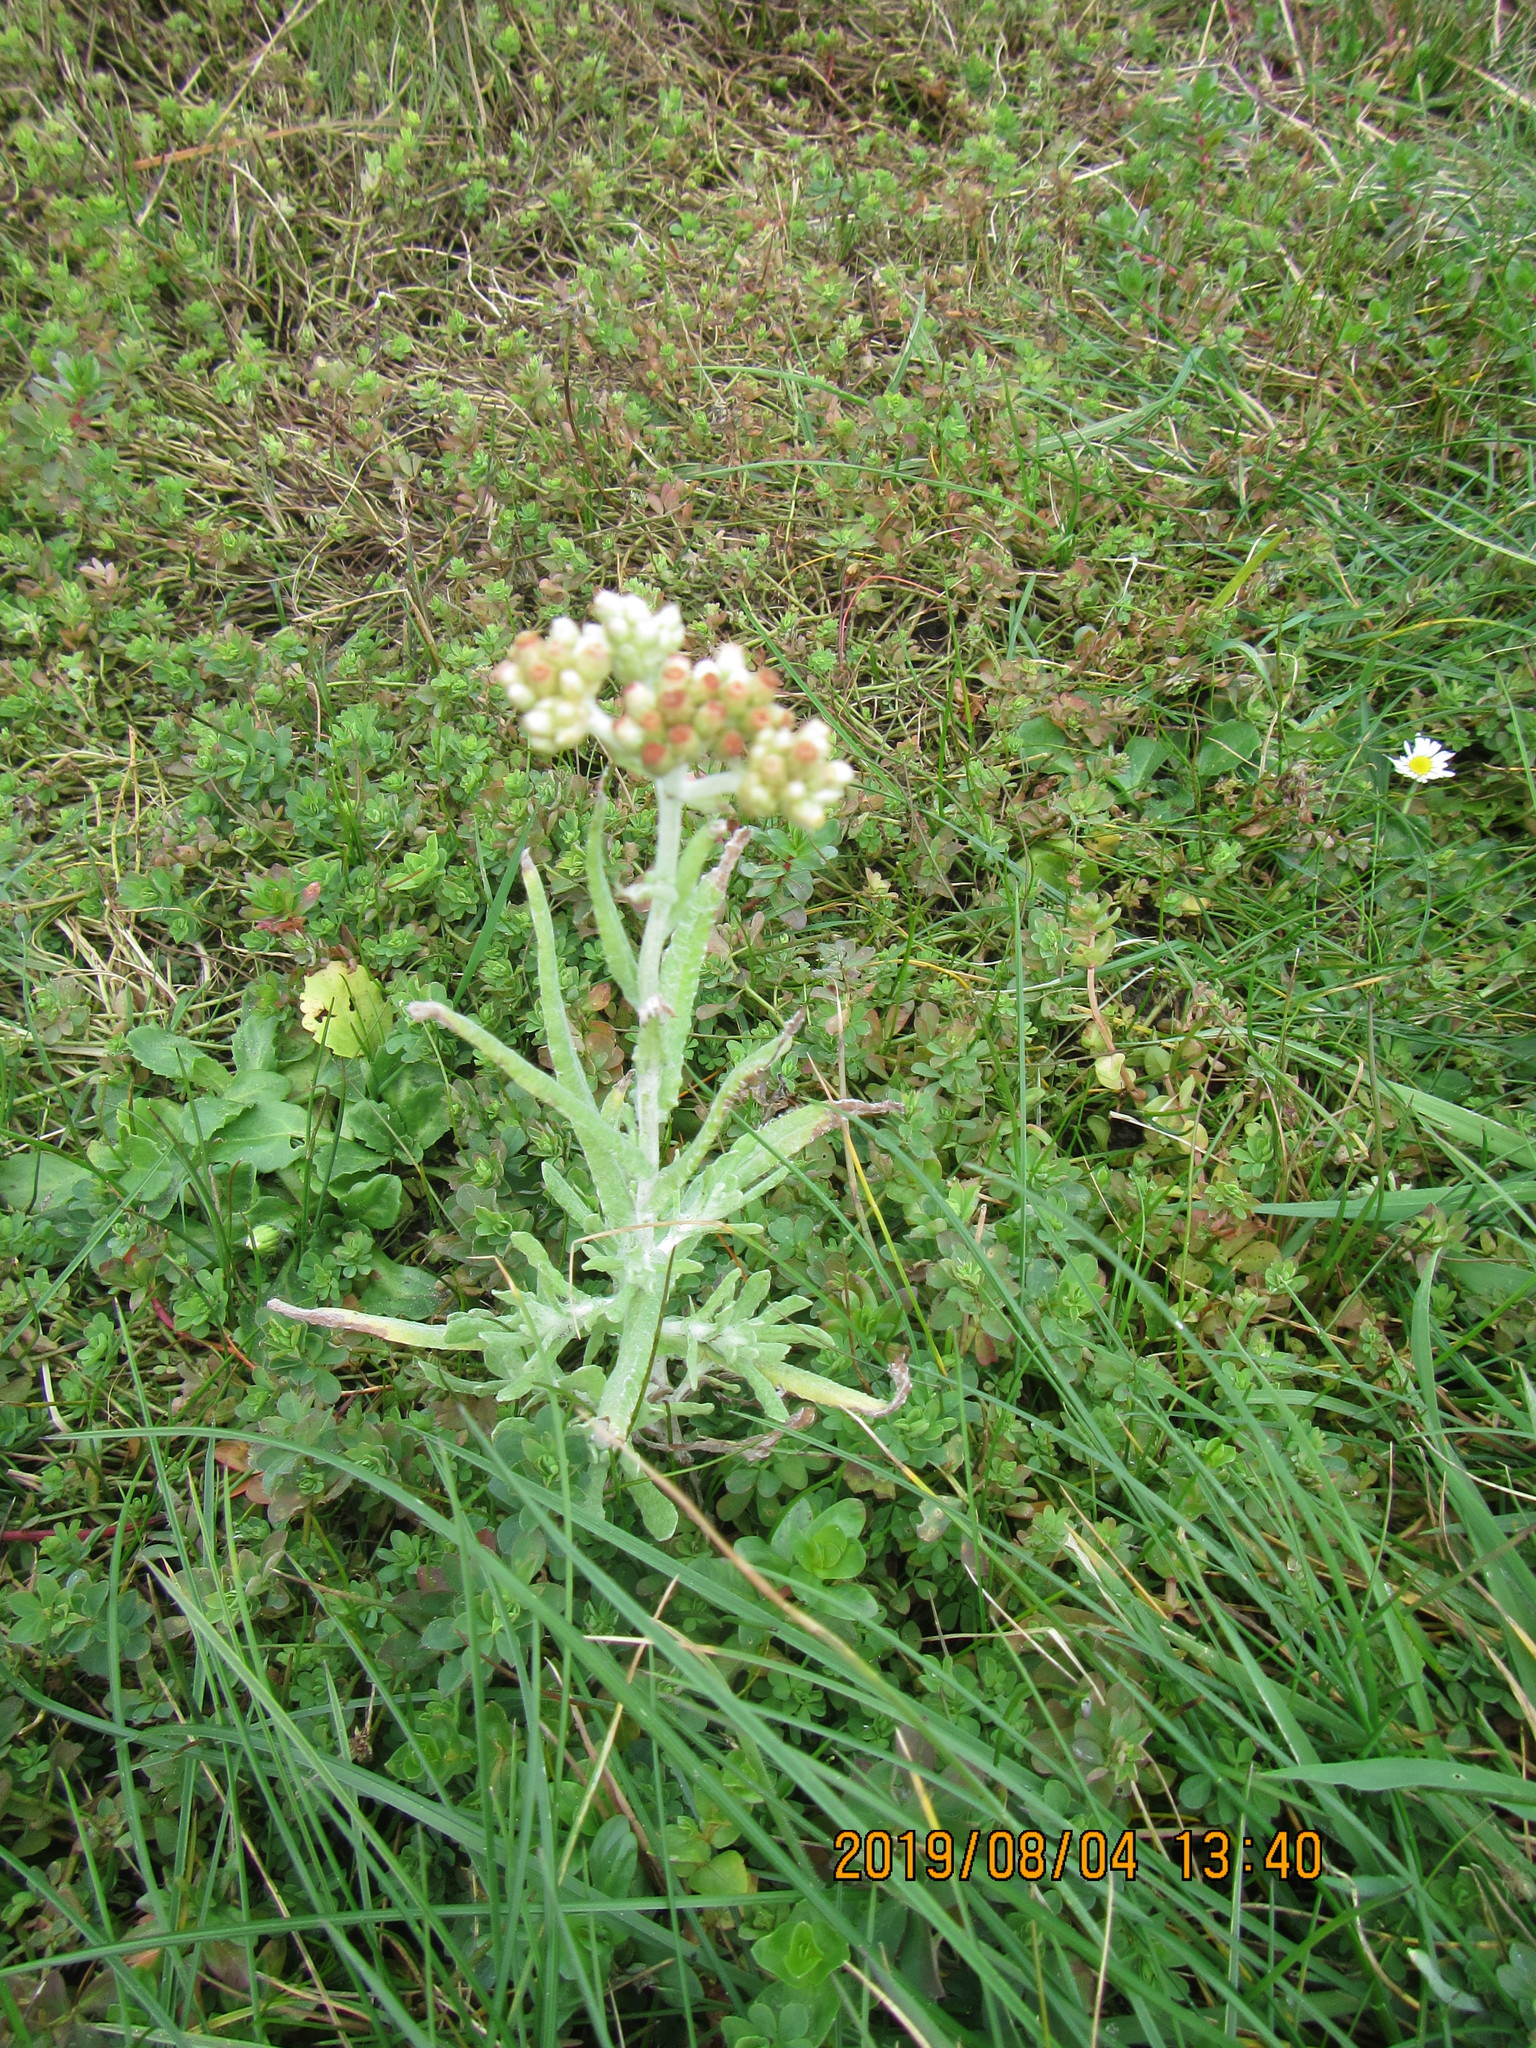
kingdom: Plantae
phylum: Tracheophyta
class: Magnoliopsida
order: Asterales
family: Asteraceae
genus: Helichrysum
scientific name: Helichrysum luteoalbum
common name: Daisy
